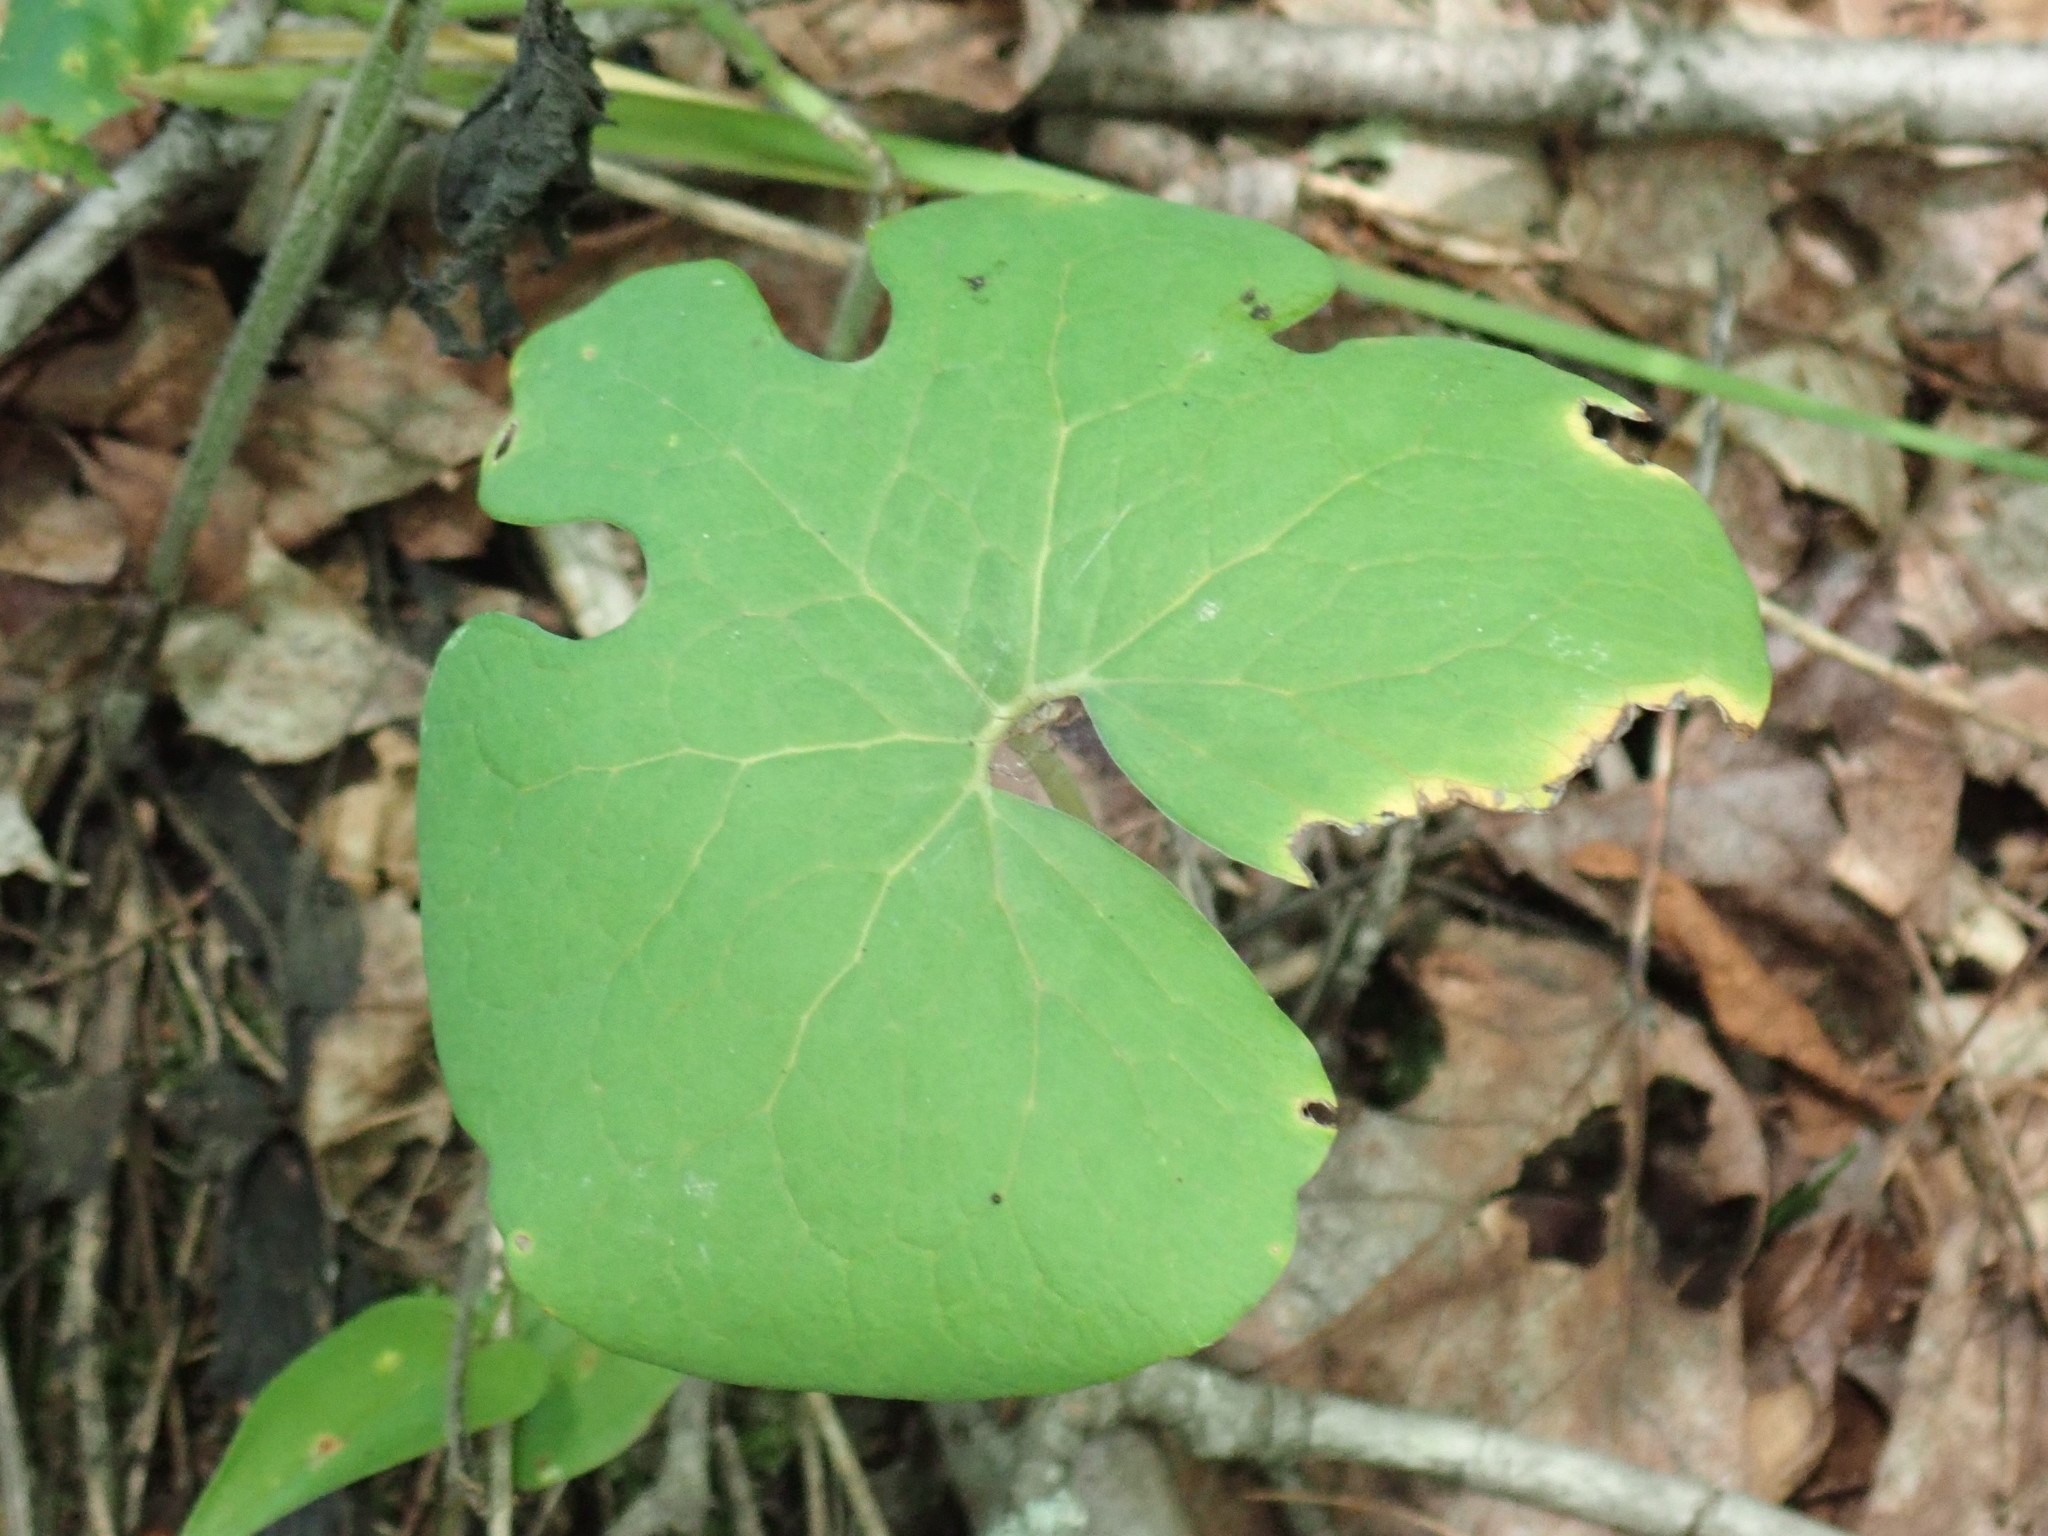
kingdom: Plantae
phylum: Tracheophyta
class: Magnoliopsida
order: Ranunculales
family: Papaveraceae
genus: Sanguinaria
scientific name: Sanguinaria canadensis
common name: Bloodroot
